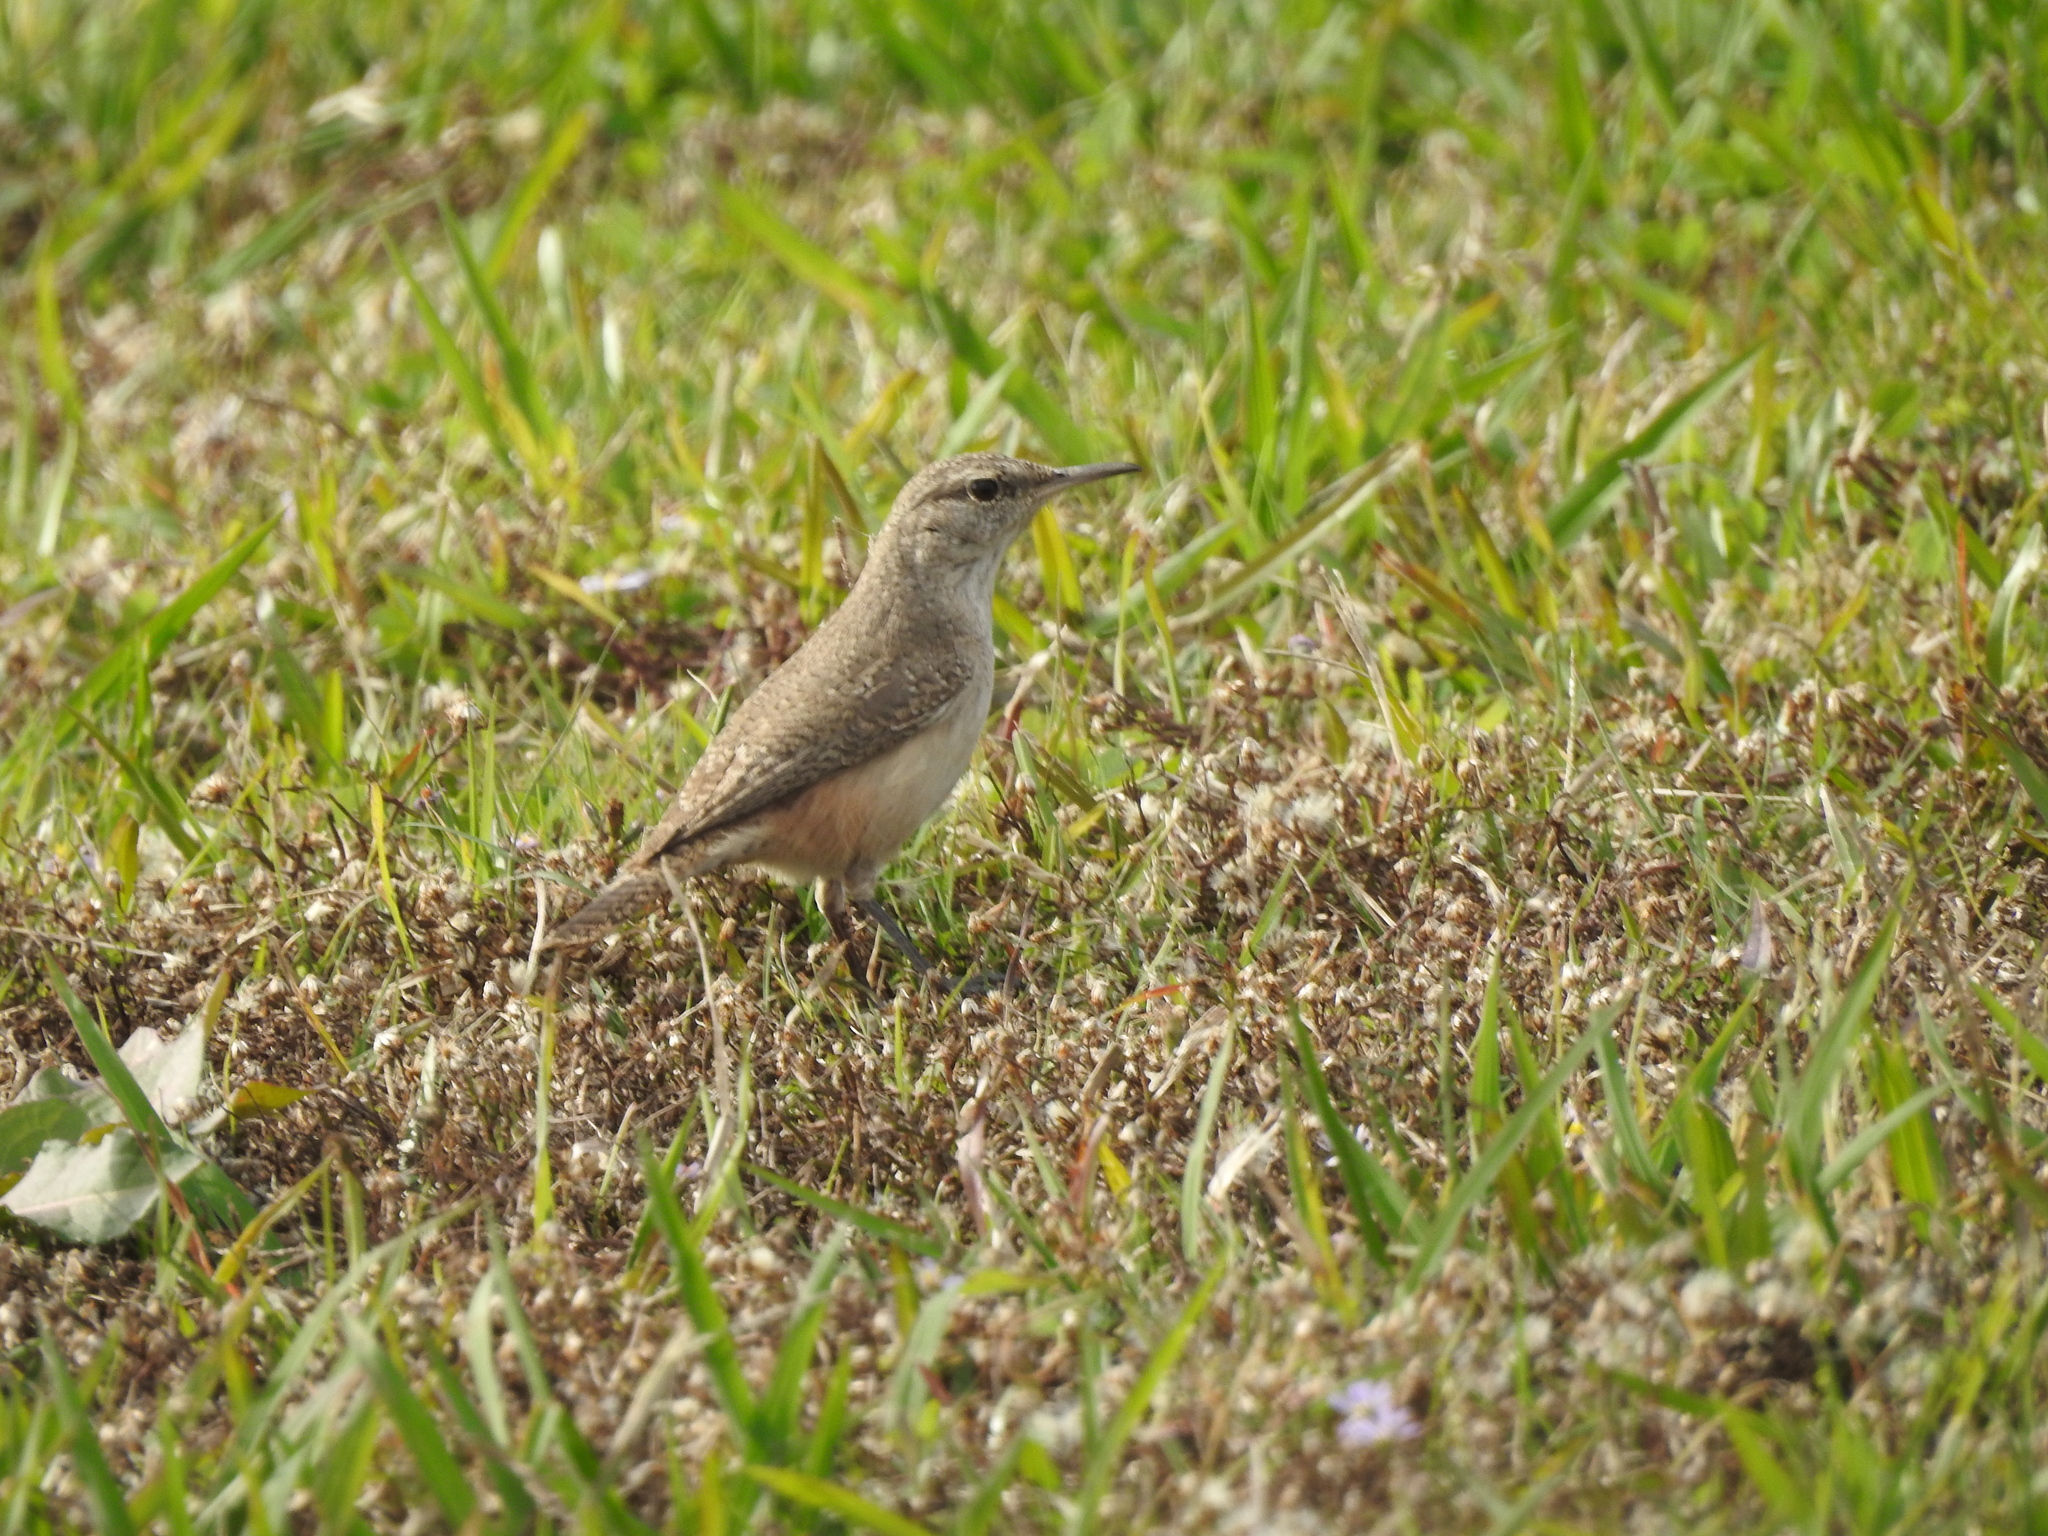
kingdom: Animalia
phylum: Chordata
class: Aves
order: Passeriformes
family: Troglodytidae
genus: Salpinctes
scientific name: Salpinctes obsoletus
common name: Rock wren
